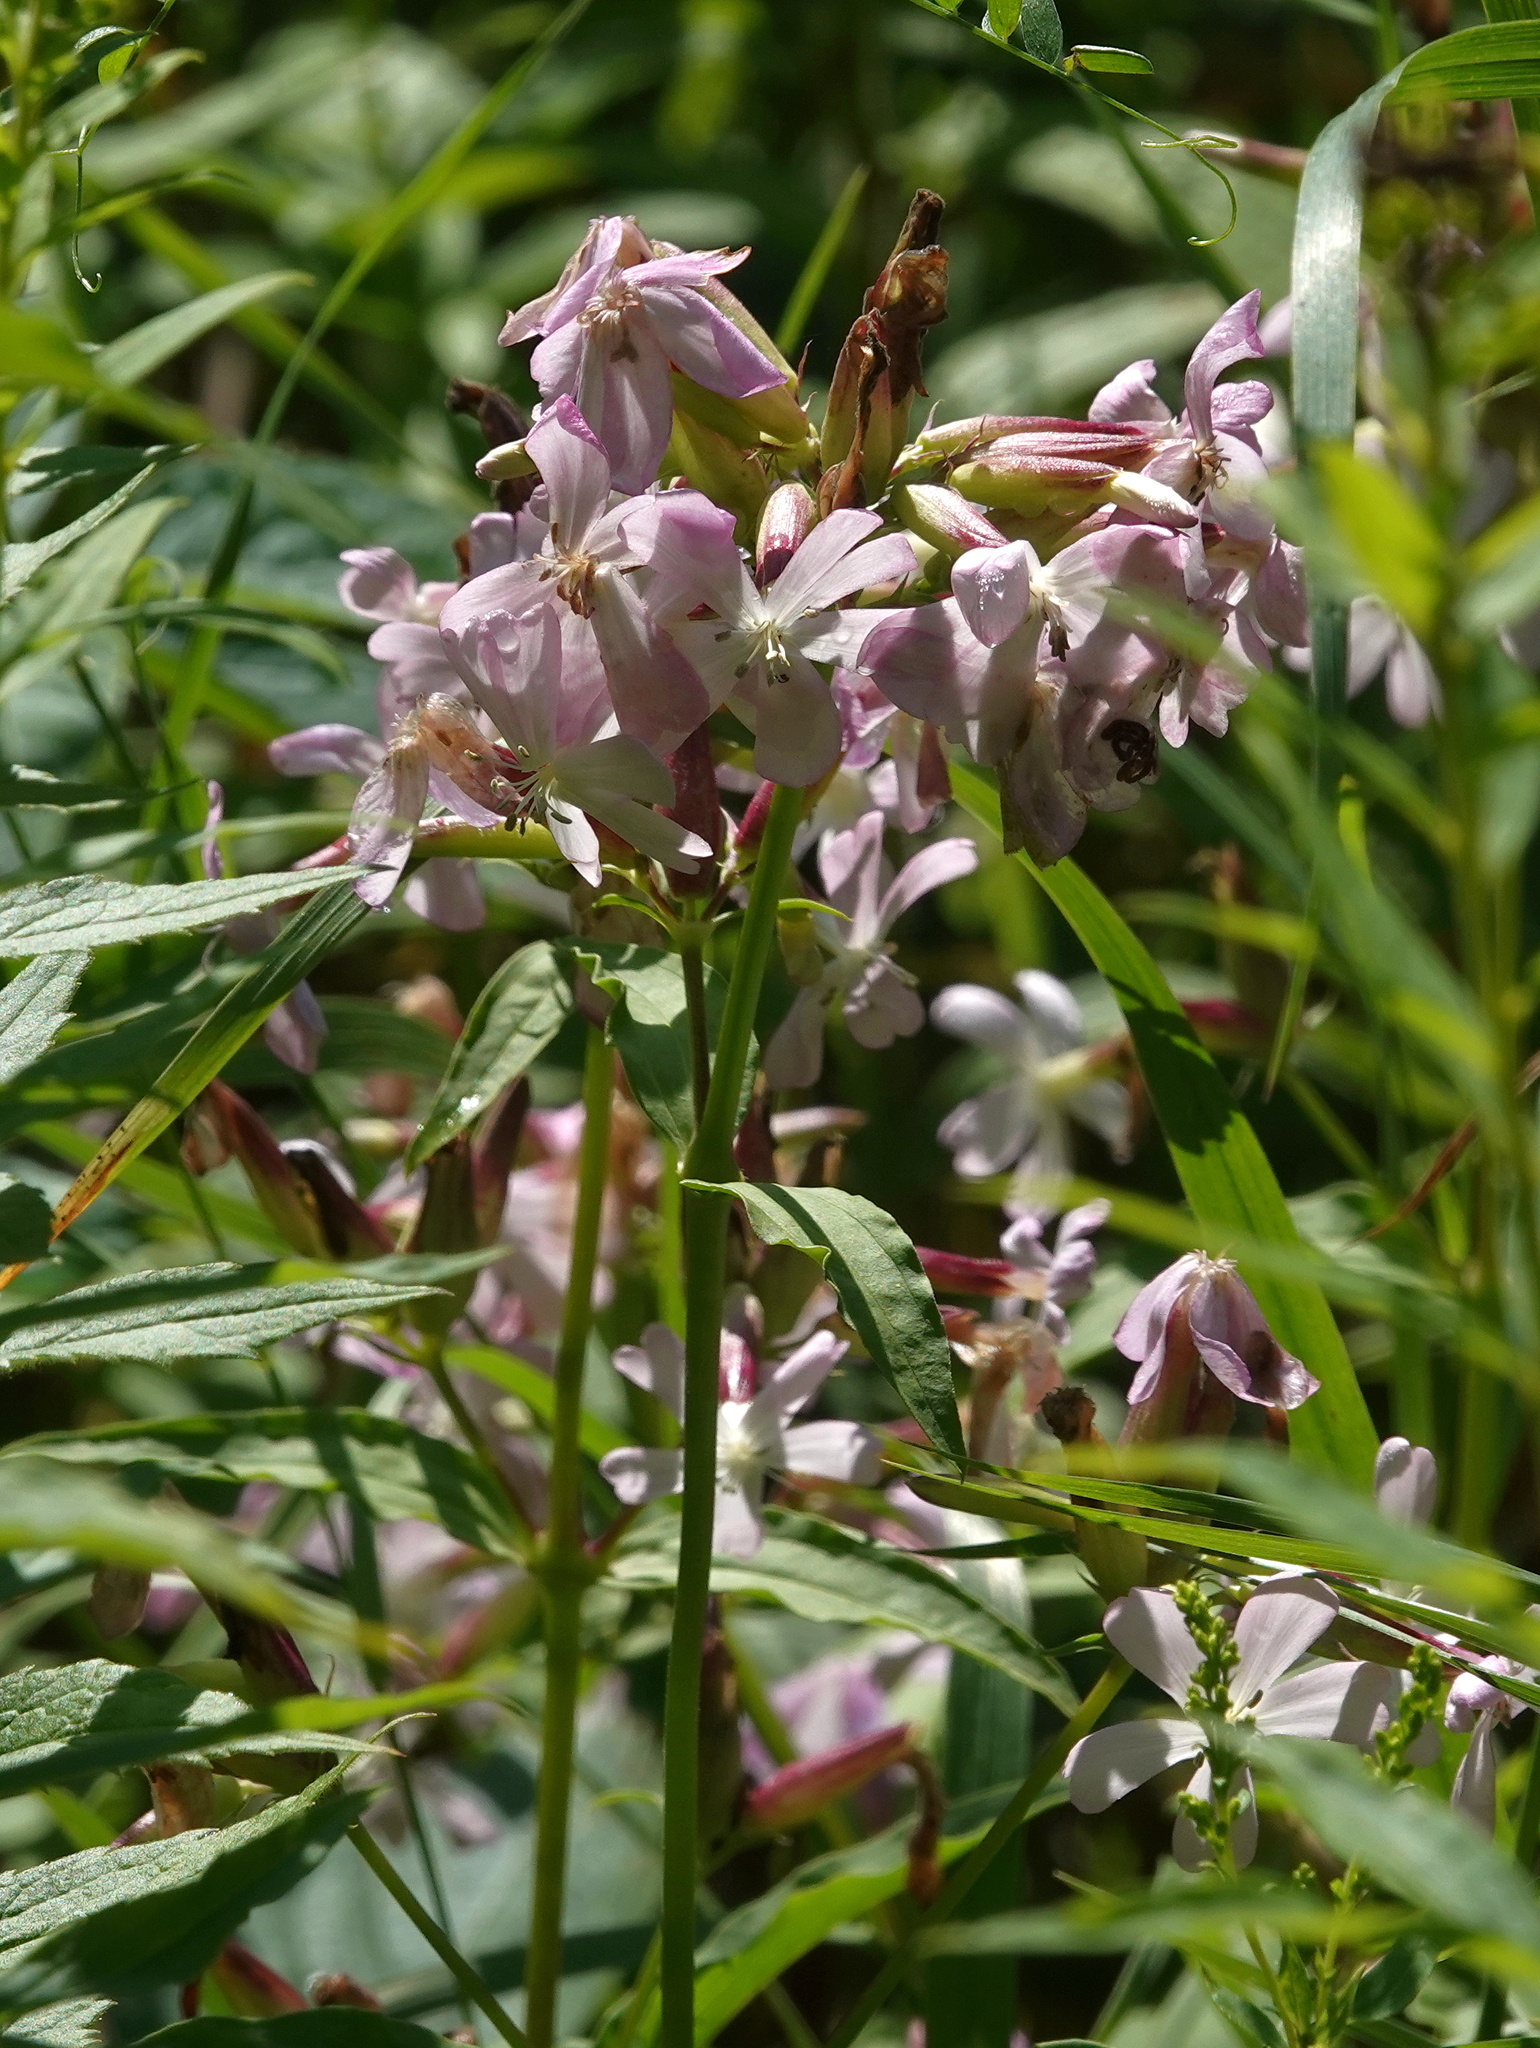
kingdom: Plantae
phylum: Tracheophyta
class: Magnoliopsida
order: Caryophyllales
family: Caryophyllaceae
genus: Saponaria
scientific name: Saponaria officinalis
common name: Soapwort
